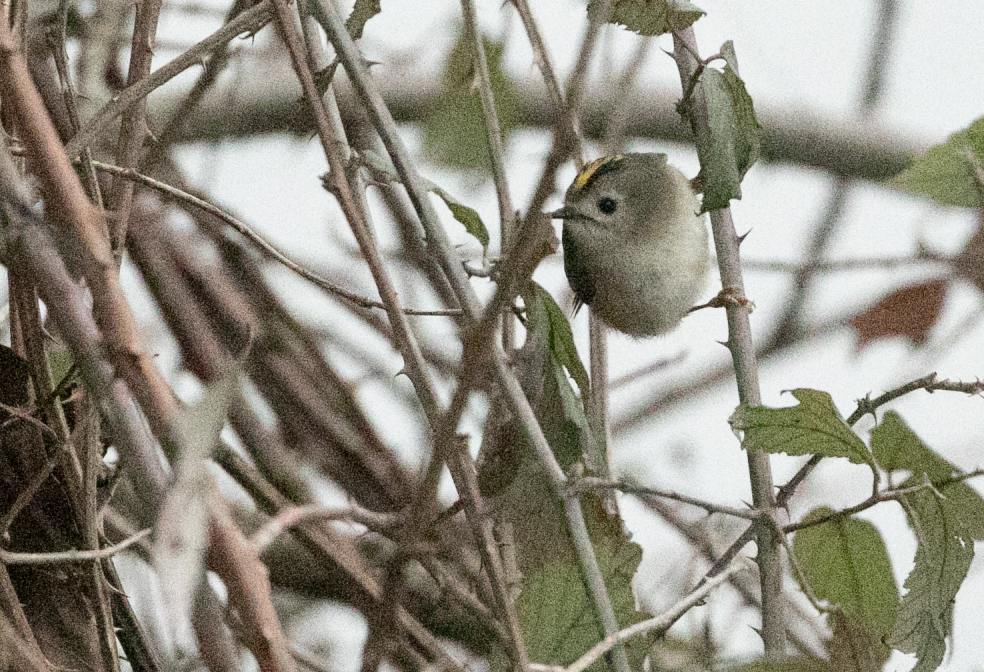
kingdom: Animalia
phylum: Chordata
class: Aves
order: Passeriformes
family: Regulidae
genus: Regulus
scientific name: Regulus regulus
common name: Goldcrest
